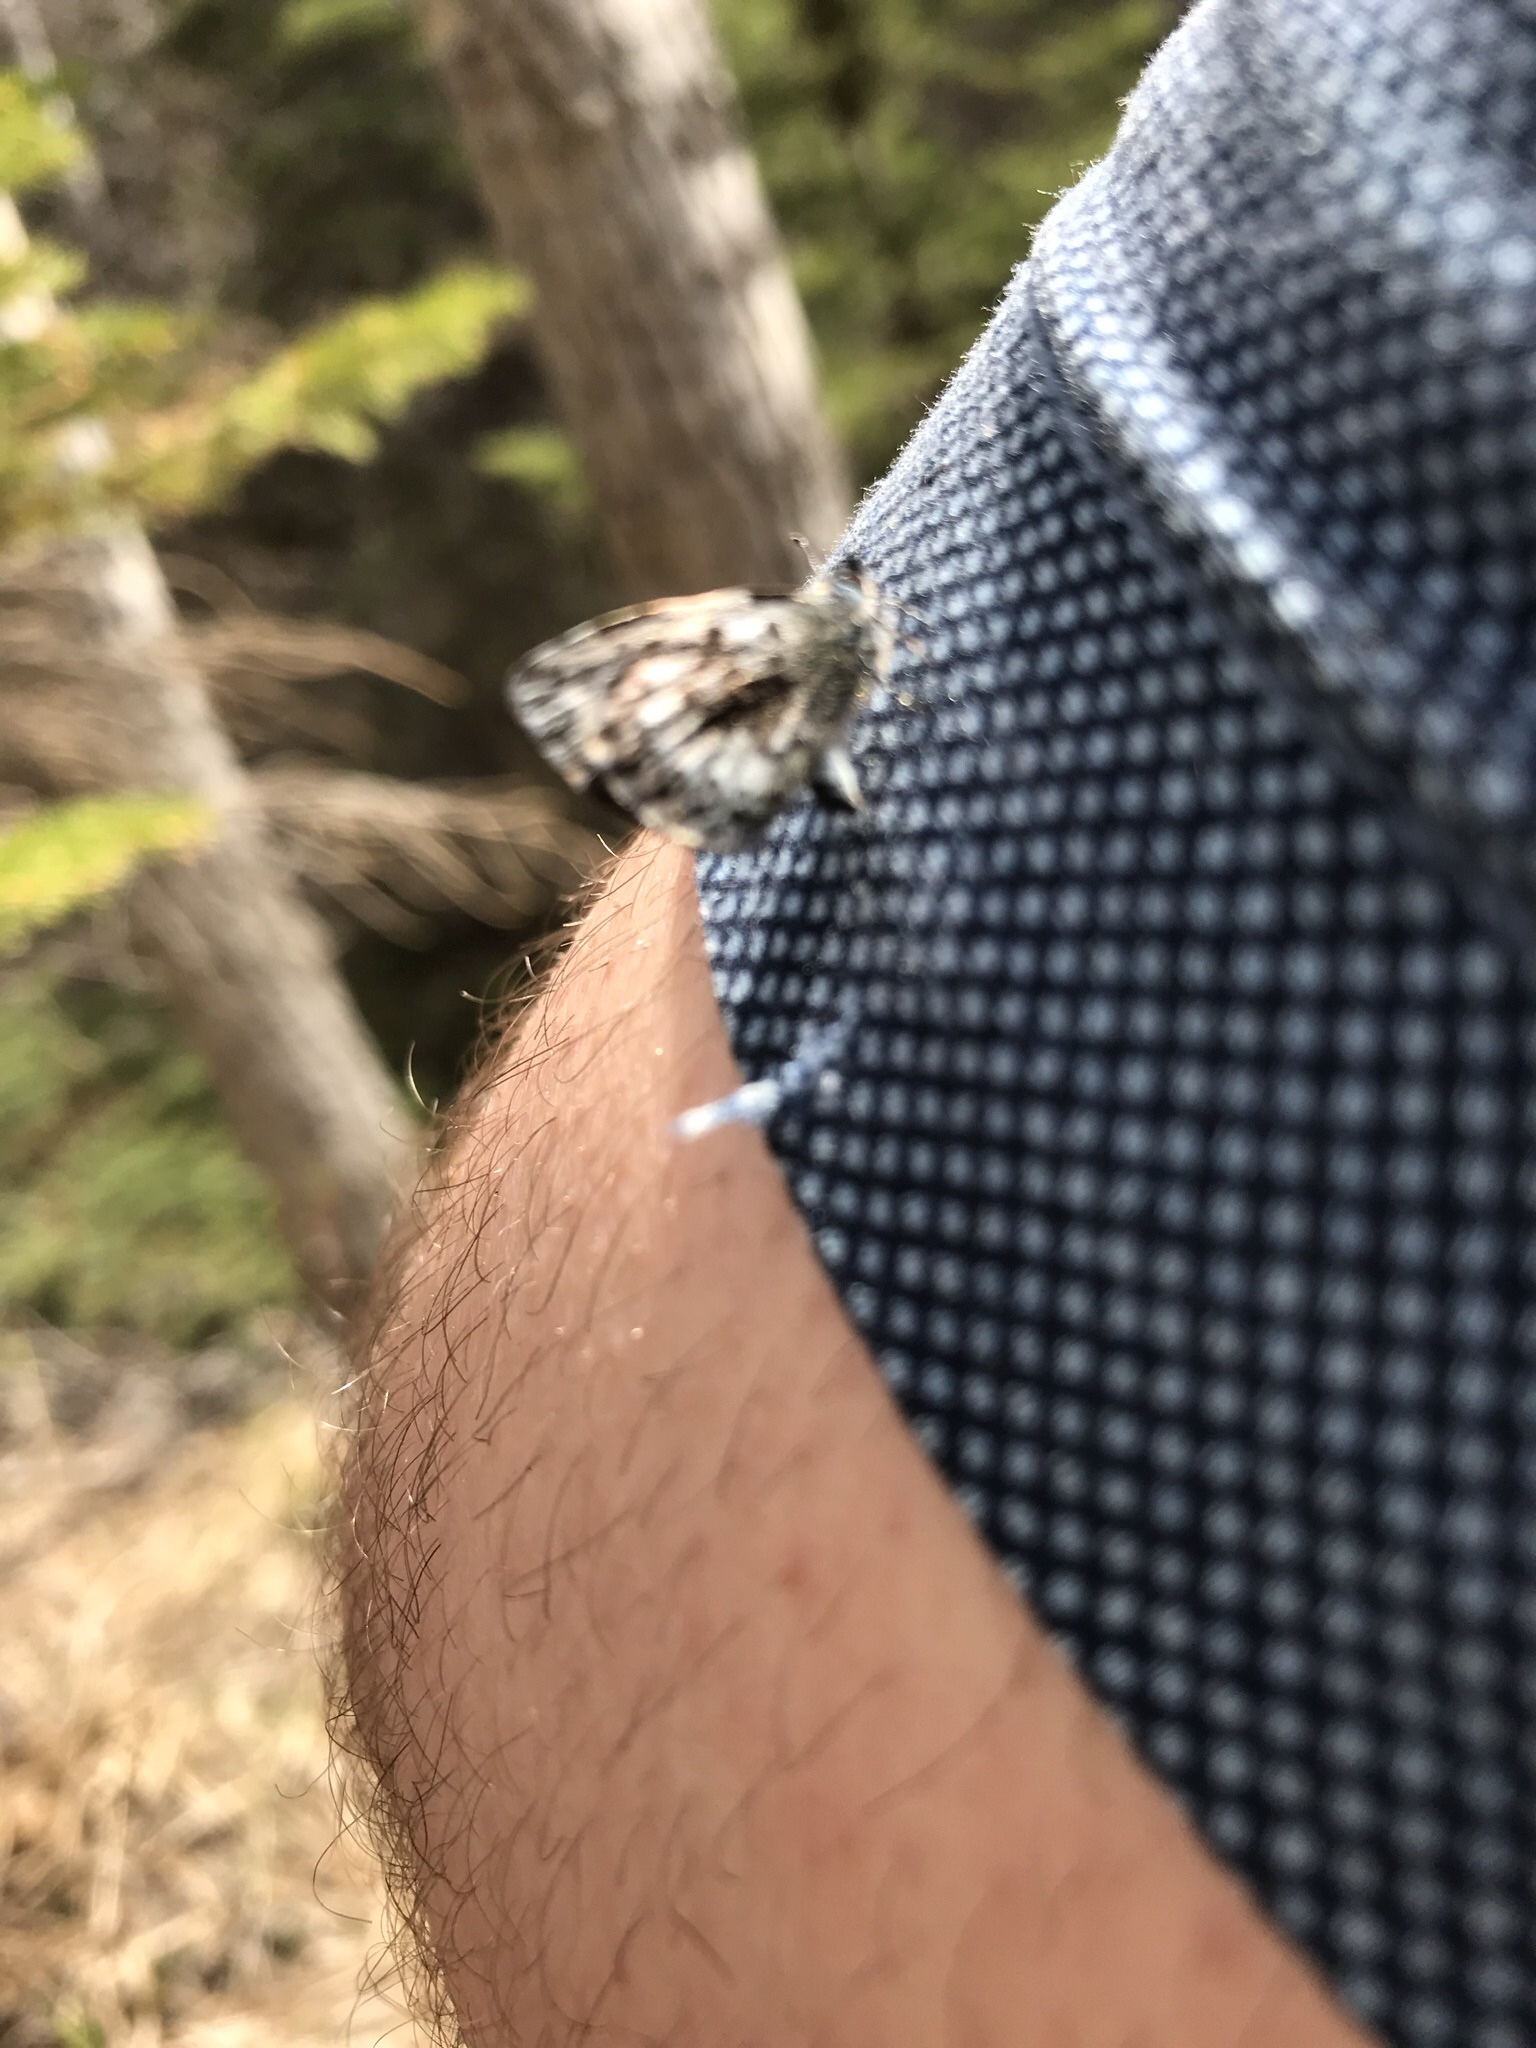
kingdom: Animalia
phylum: Arthropoda
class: Insecta
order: Lepidoptera
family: Lycaenidae
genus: Celastrina
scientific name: Celastrina lucia
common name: Lucia azure
